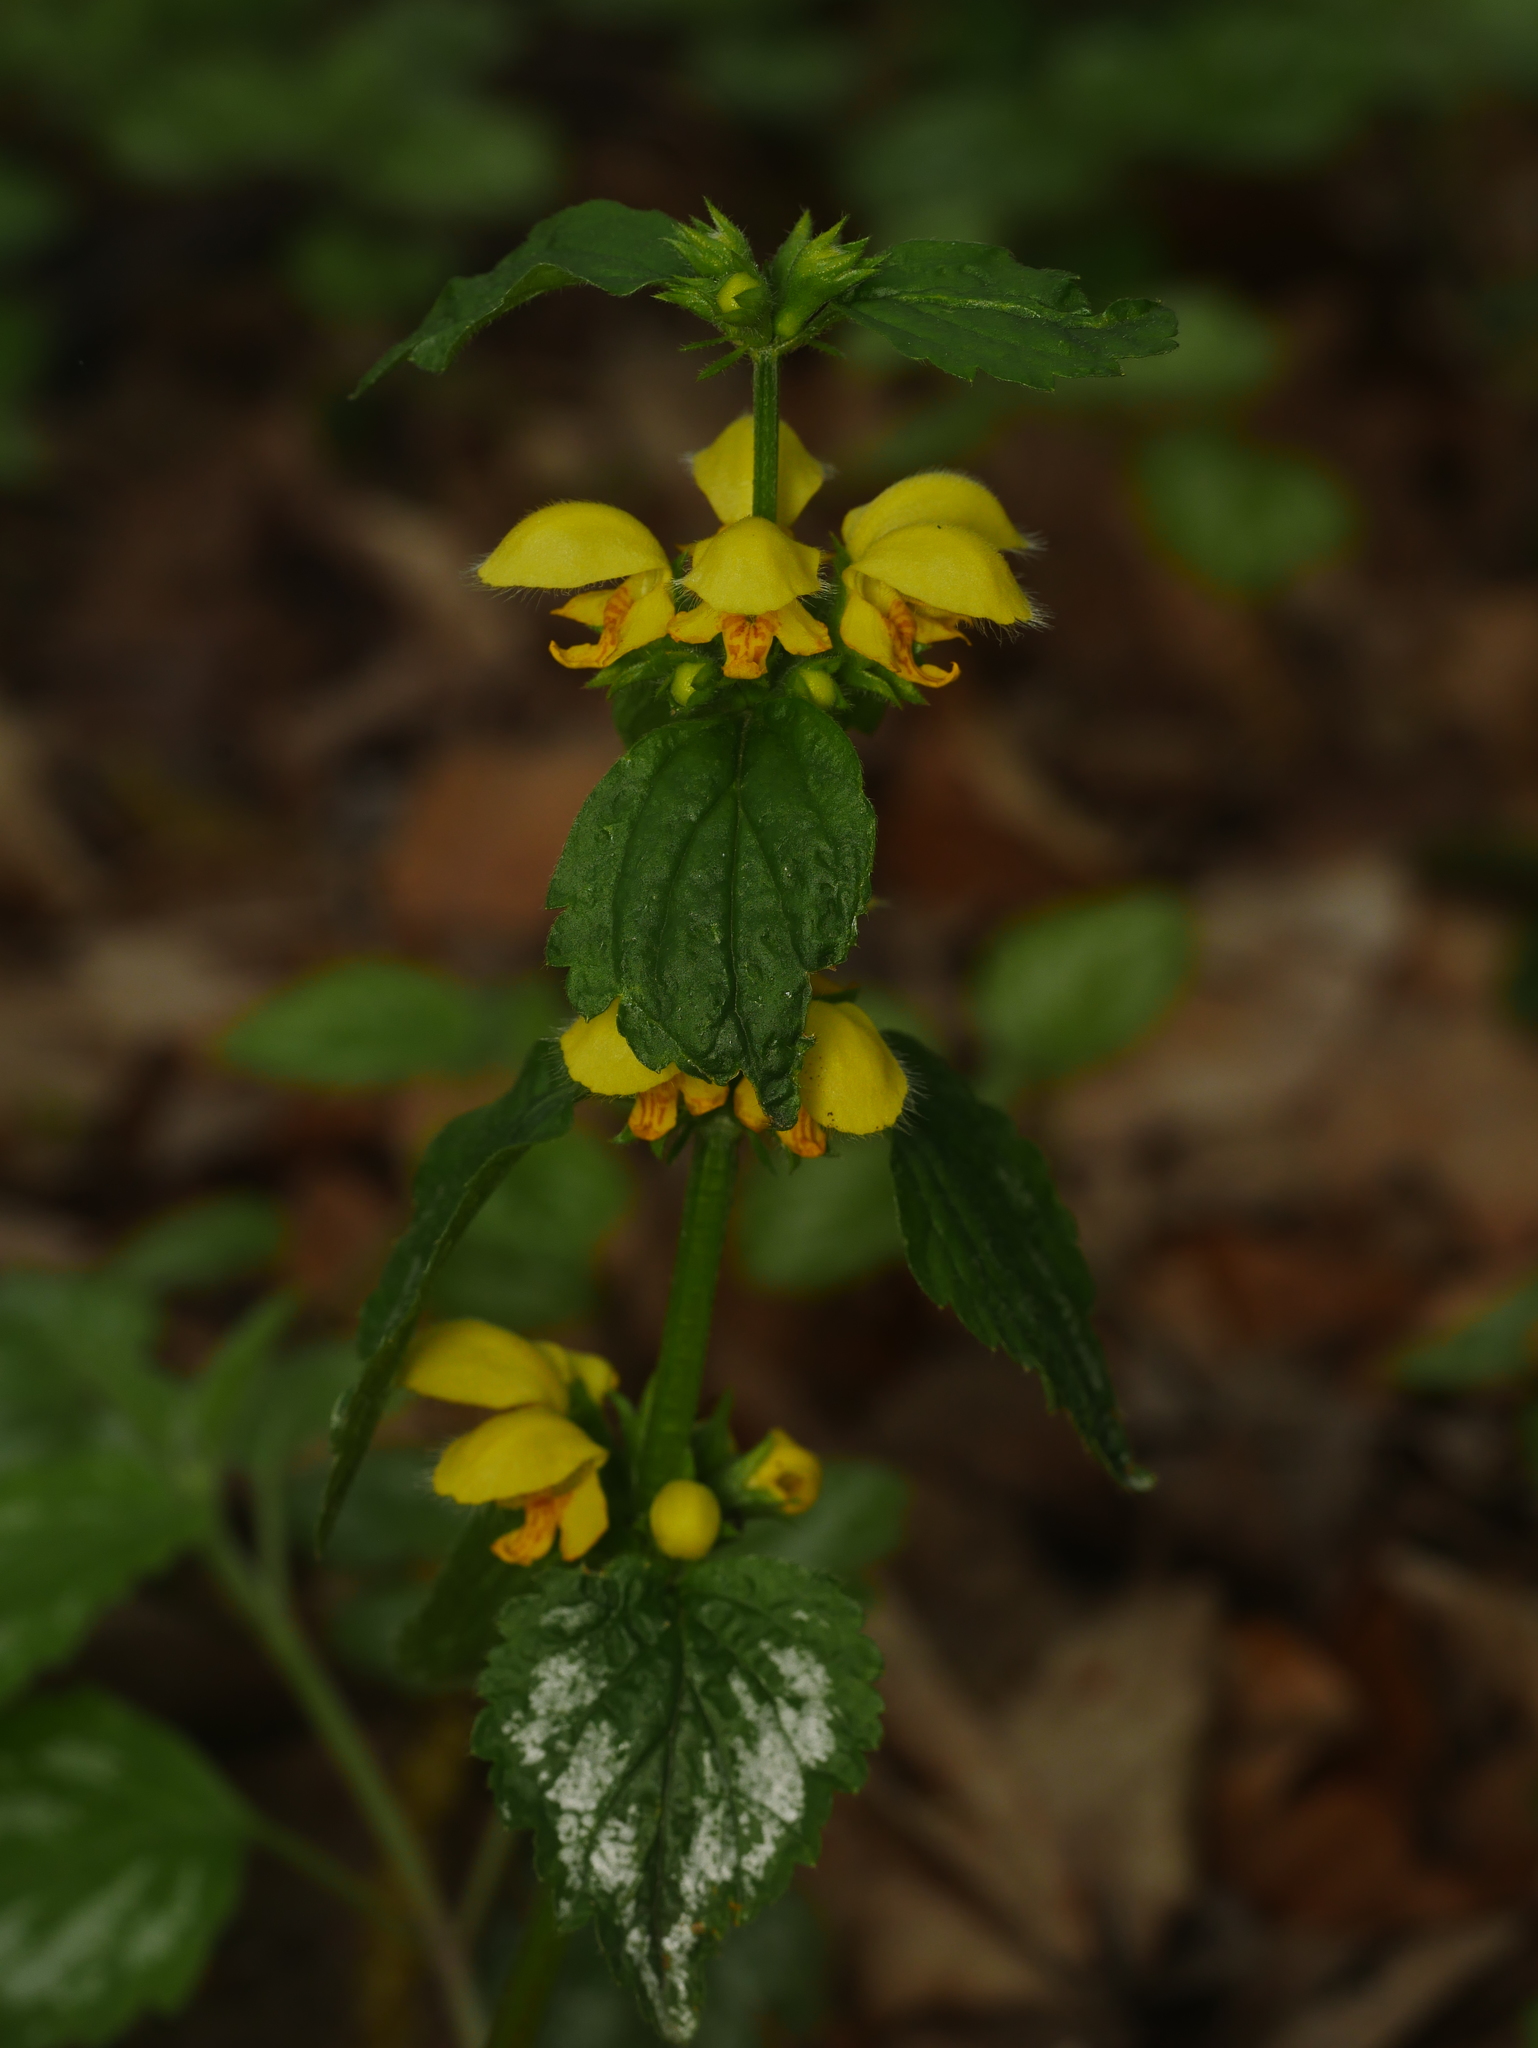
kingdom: Plantae
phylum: Tracheophyta
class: Magnoliopsida
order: Lamiales
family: Lamiaceae
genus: Lamium
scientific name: Lamium galeobdolon
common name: Yellow archangel
